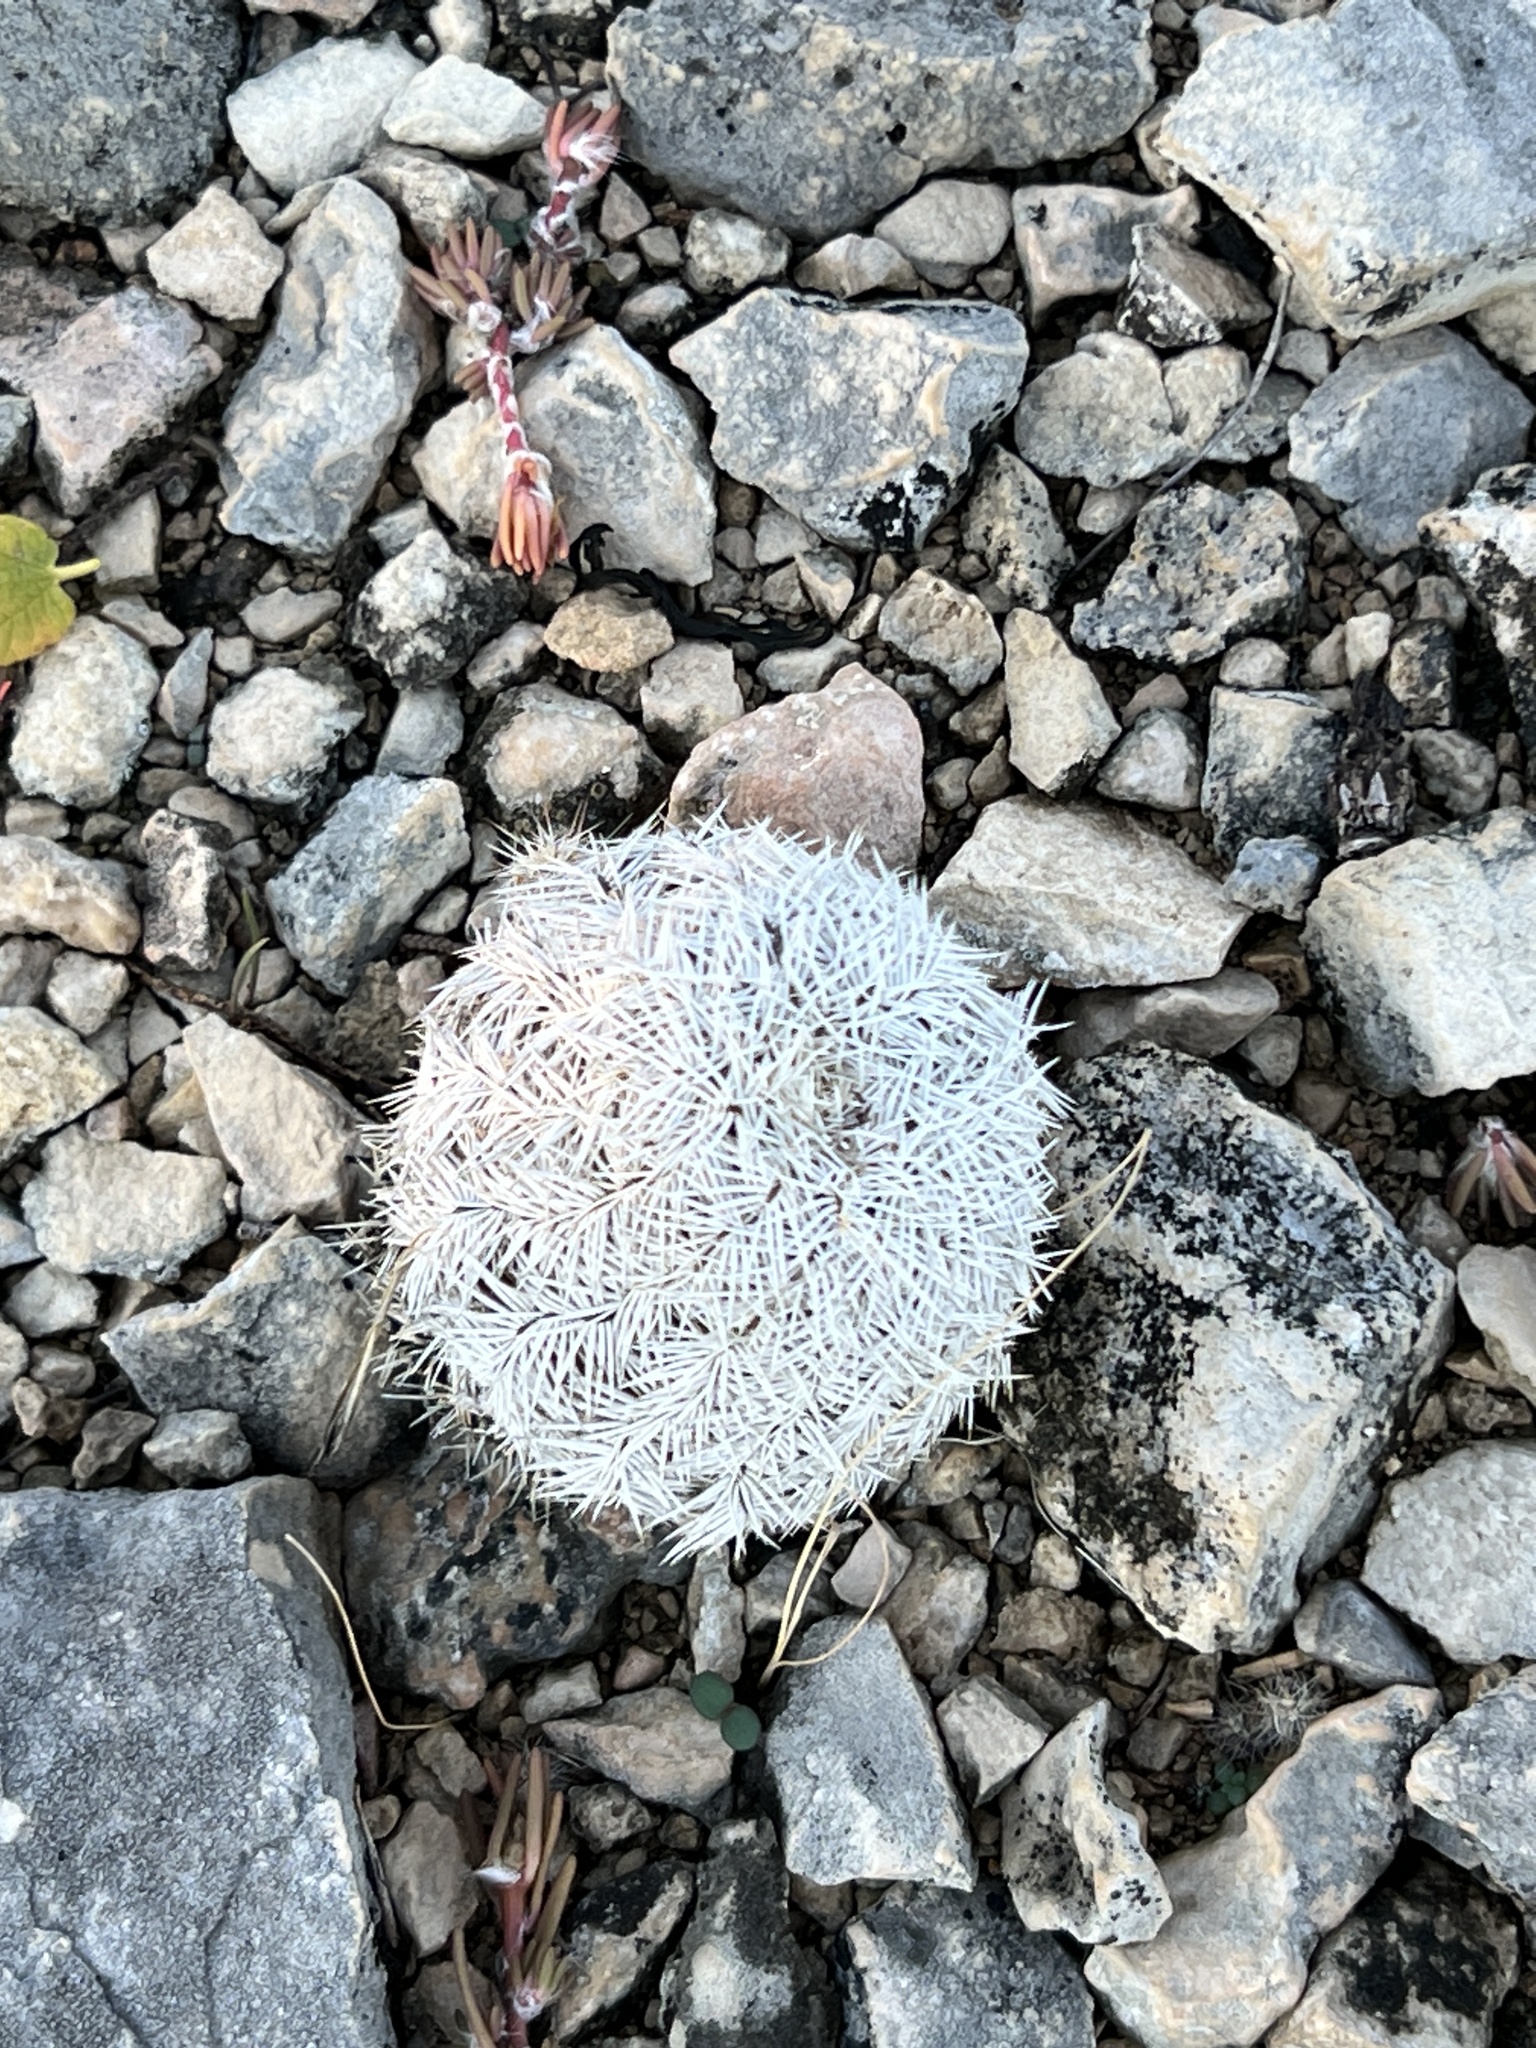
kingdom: Plantae
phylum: Tracheophyta
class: Magnoliopsida
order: Caryophyllales
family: Cactaceae
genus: Echinocereus
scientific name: Echinocereus reichenbachii
